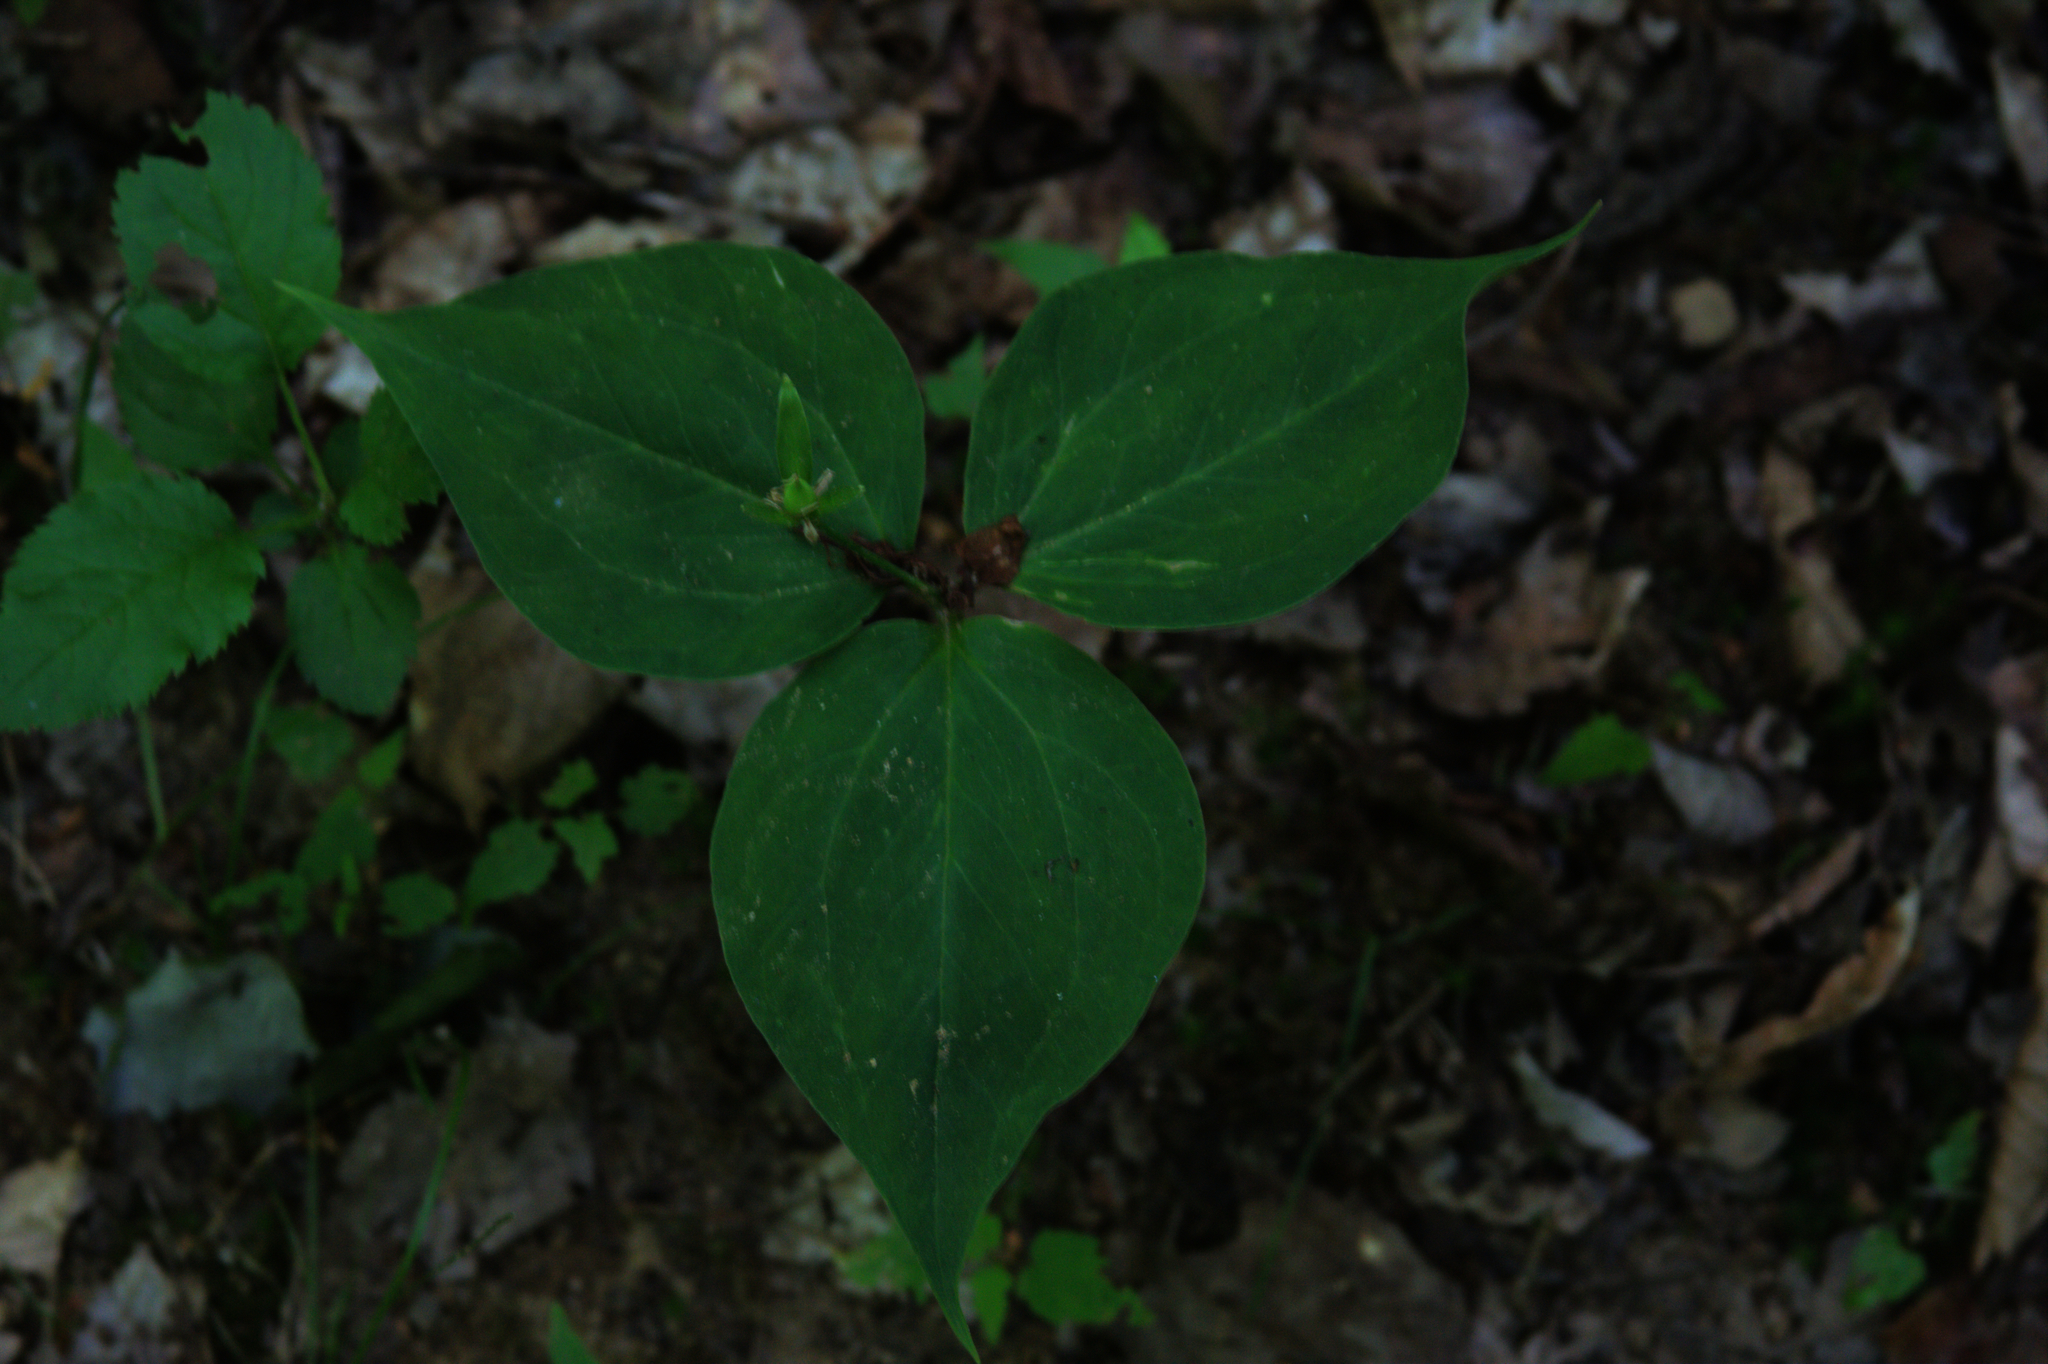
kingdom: Plantae
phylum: Tracheophyta
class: Liliopsida
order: Liliales
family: Melanthiaceae
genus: Trillium
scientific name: Trillium undulatum
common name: Paint trillium
